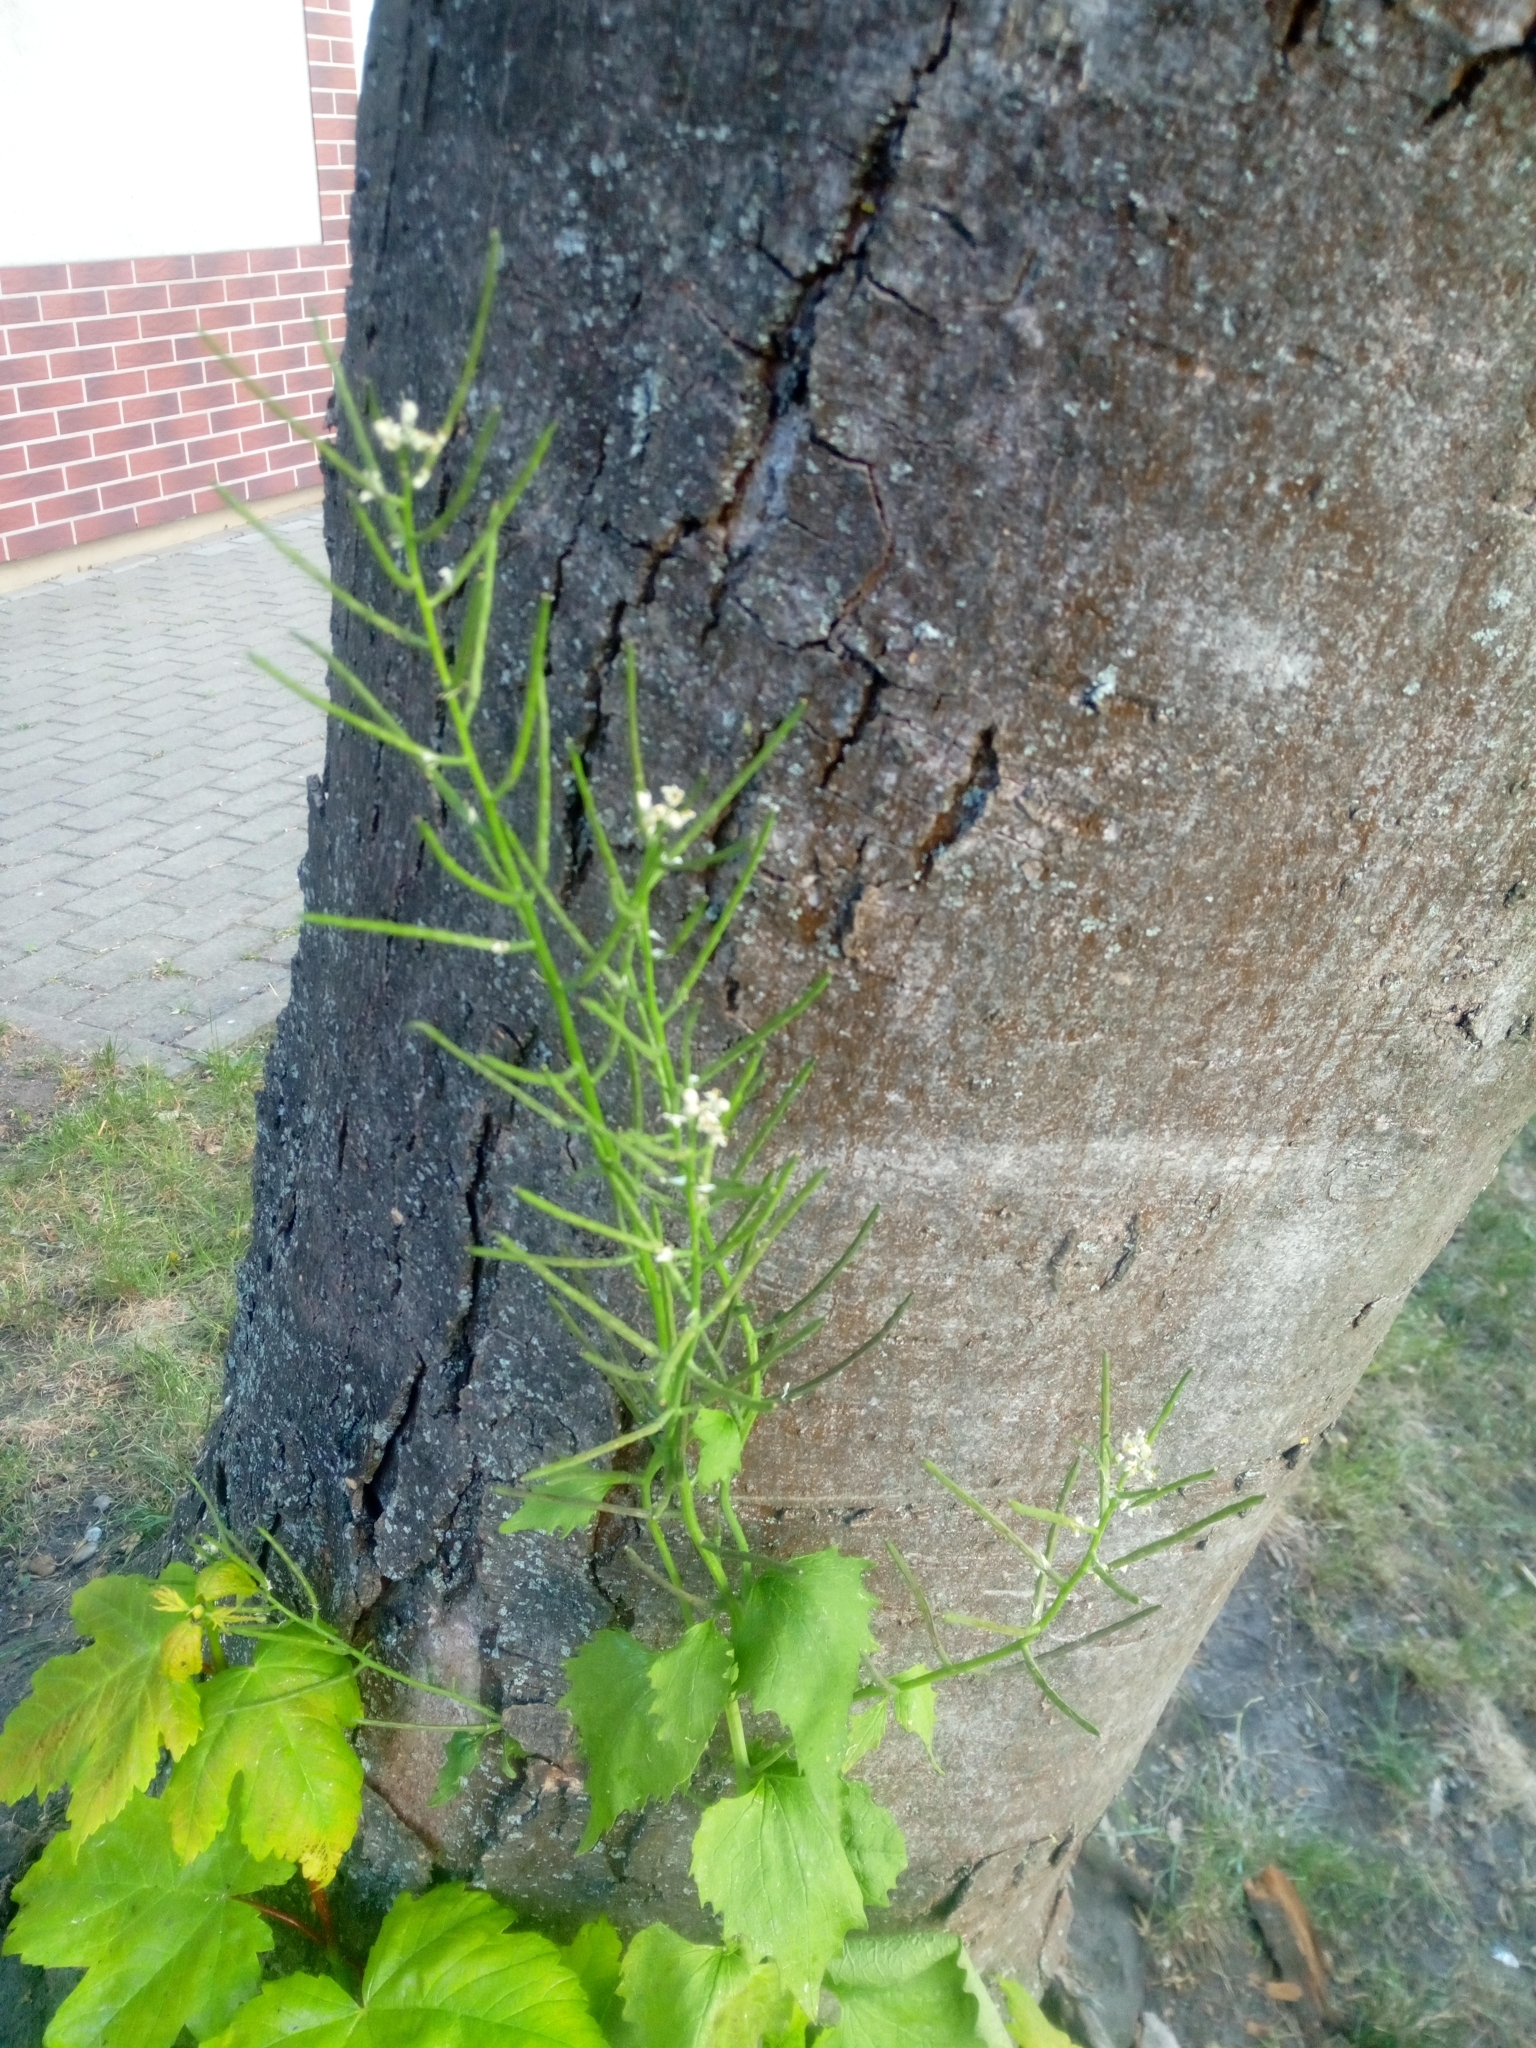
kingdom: Plantae
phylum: Tracheophyta
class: Magnoliopsida
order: Brassicales
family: Brassicaceae
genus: Alliaria
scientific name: Alliaria petiolata
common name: Garlic mustard
